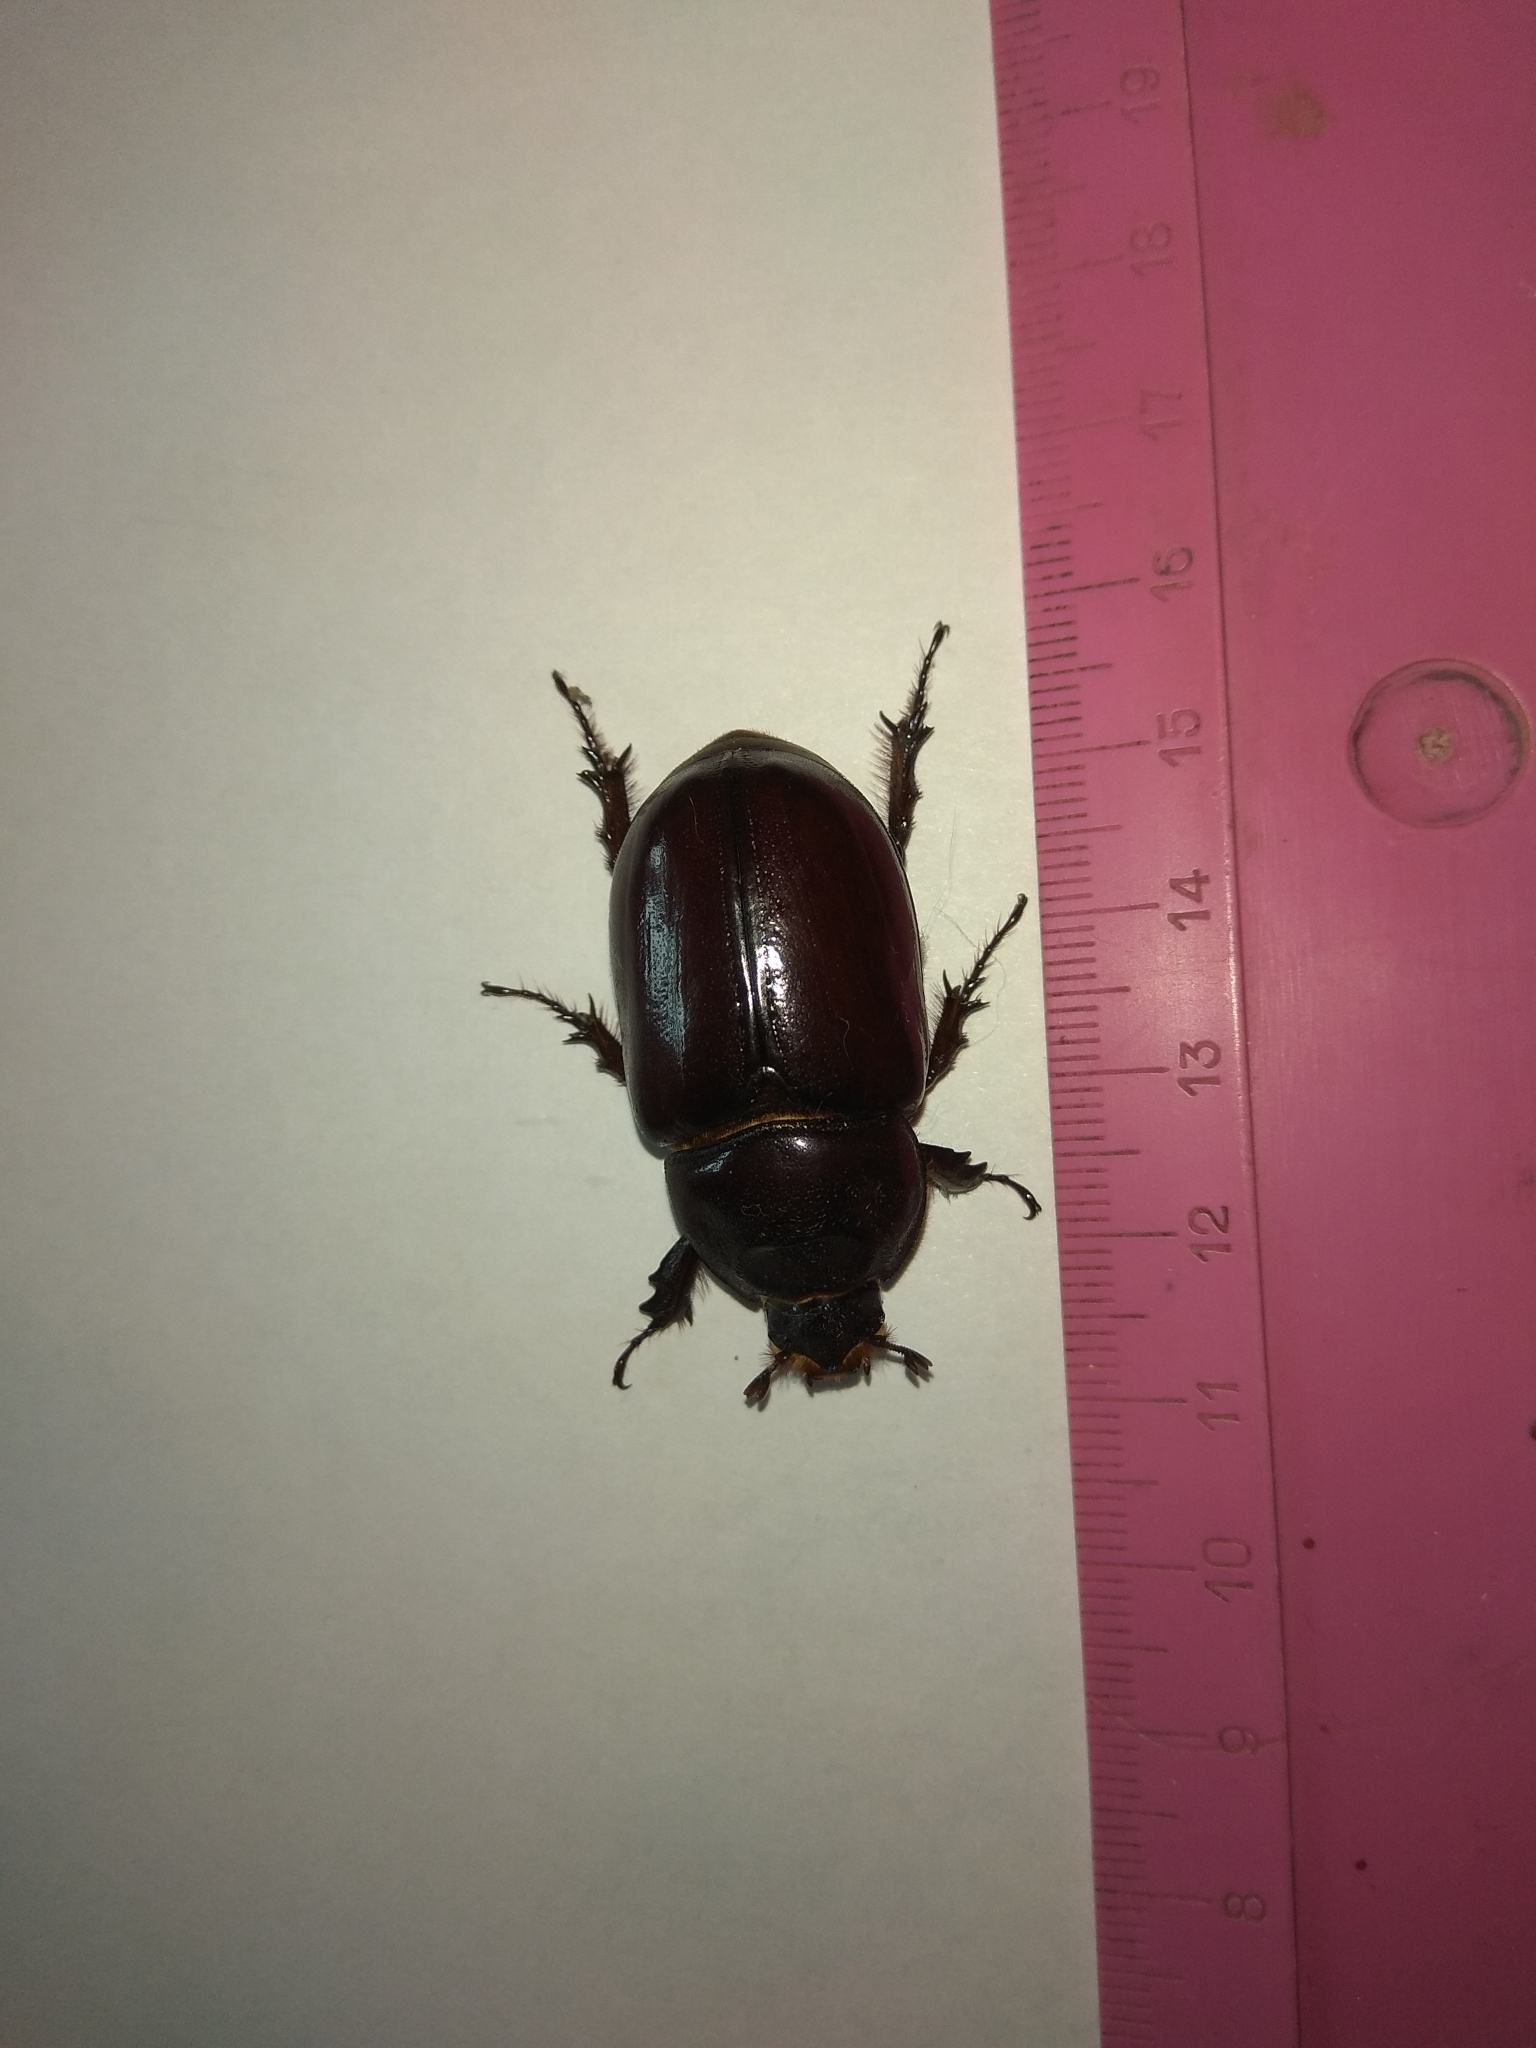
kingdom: Animalia
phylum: Arthropoda
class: Insecta
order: Coleoptera
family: Scarabaeidae
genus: Oryctes
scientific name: Oryctes nasicornis
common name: European rhinoceros beetle
